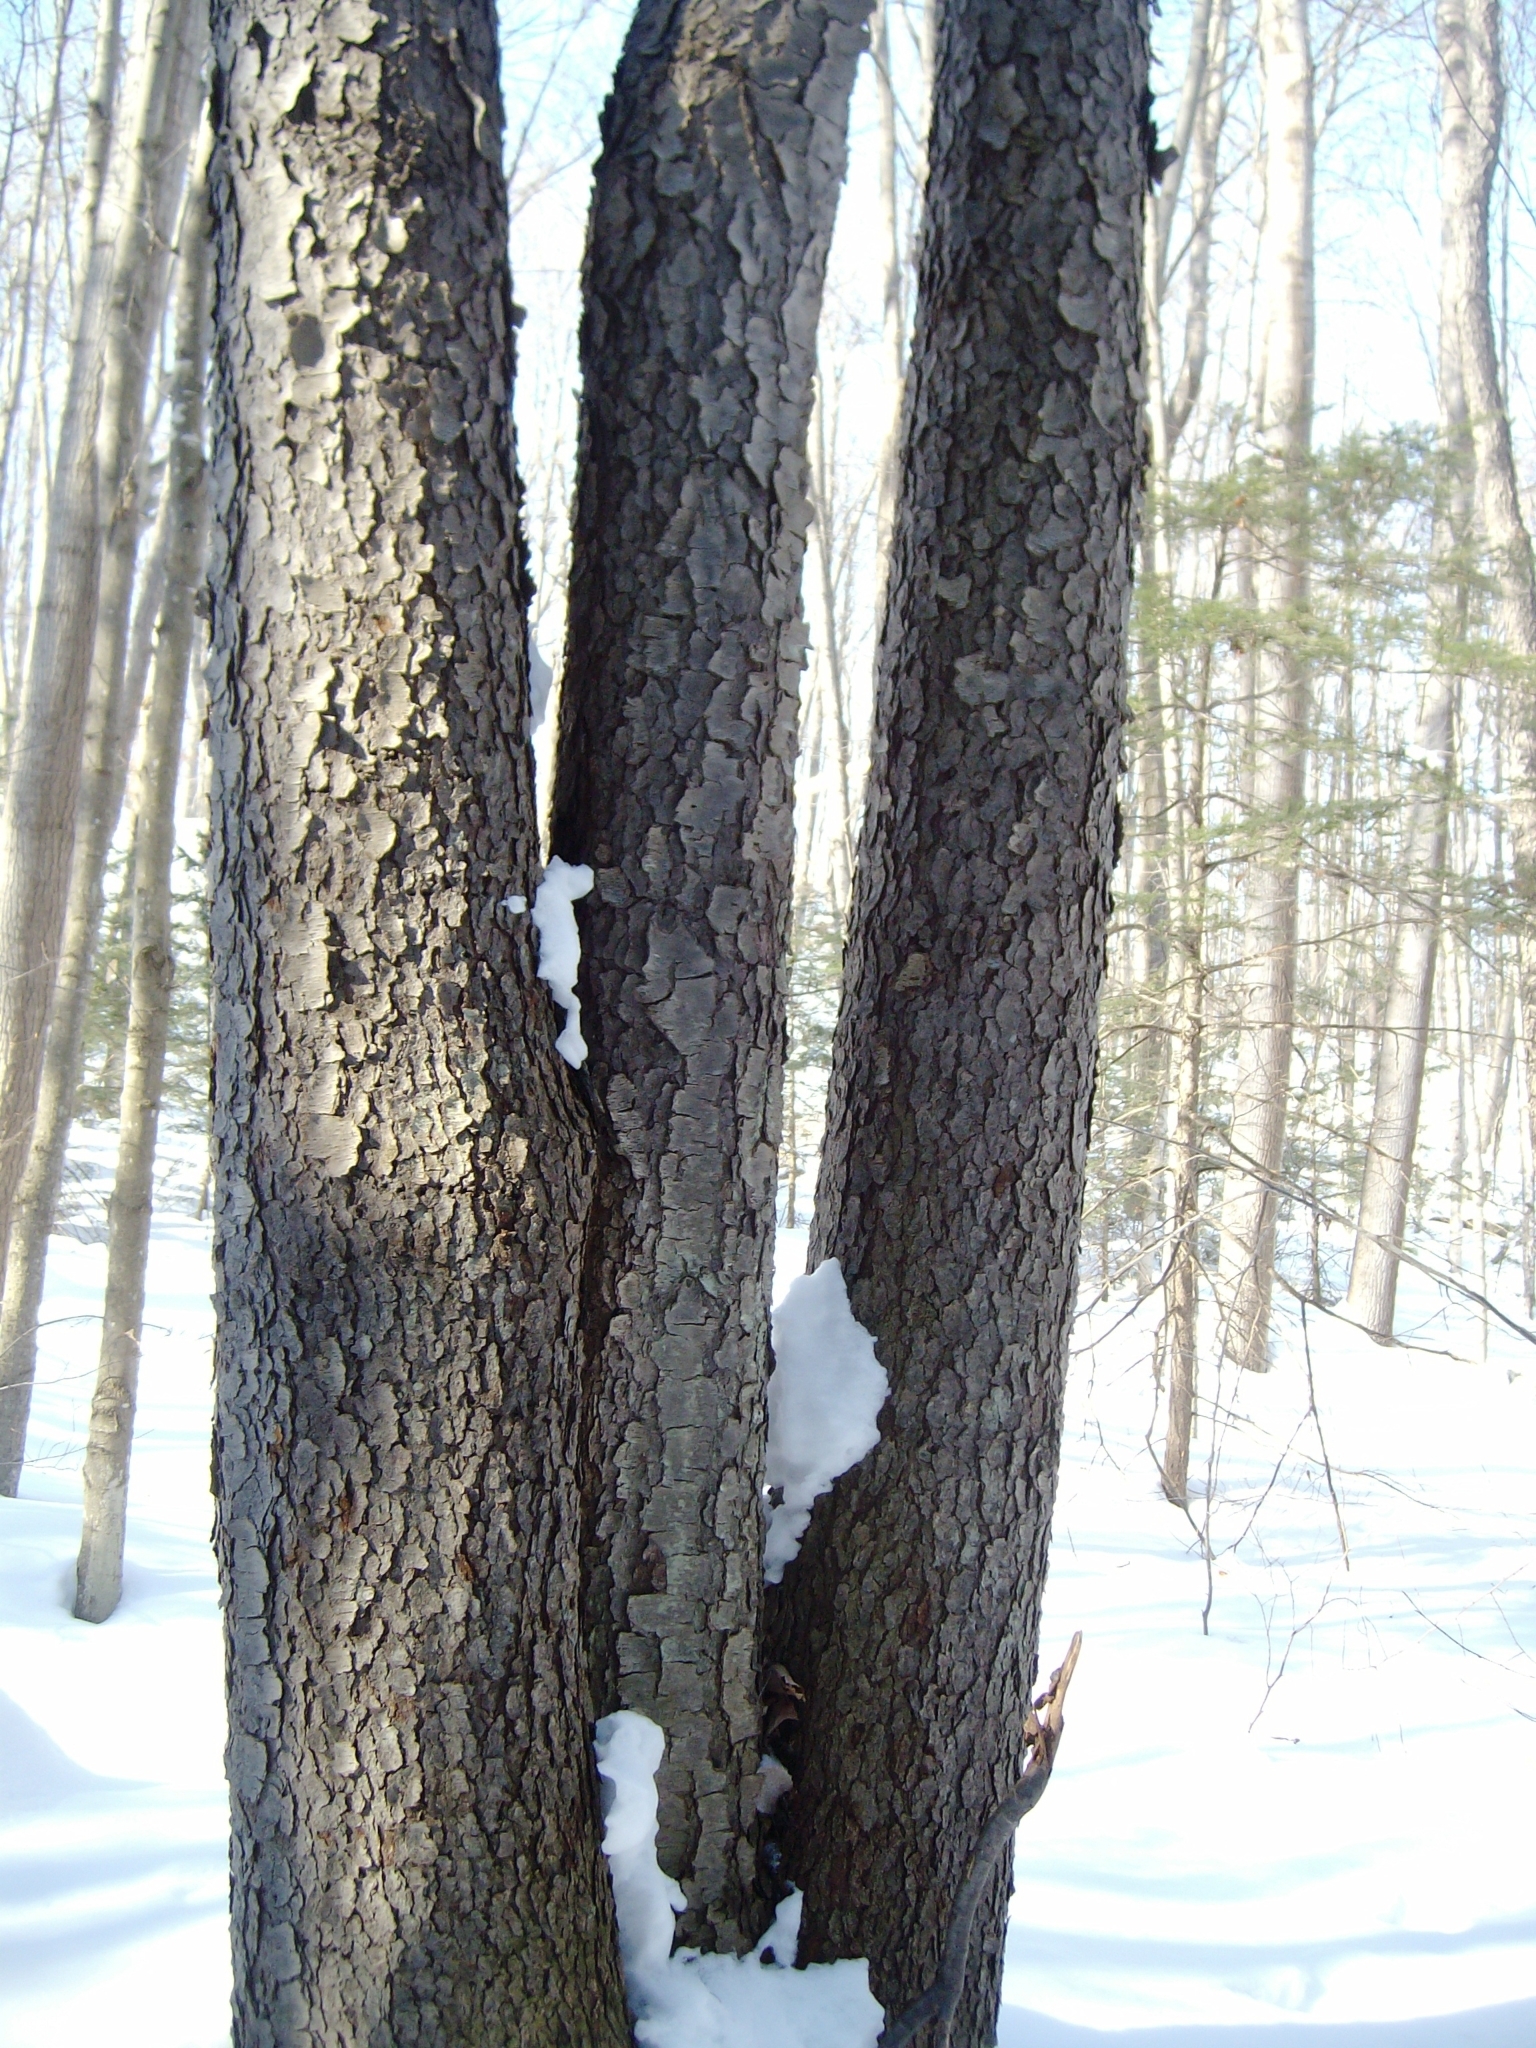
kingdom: Plantae
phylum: Tracheophyta
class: Magnoliopsida
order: Rosales
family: Rosaceae
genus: Prunus
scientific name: Prunus serotina
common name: Black cherry
